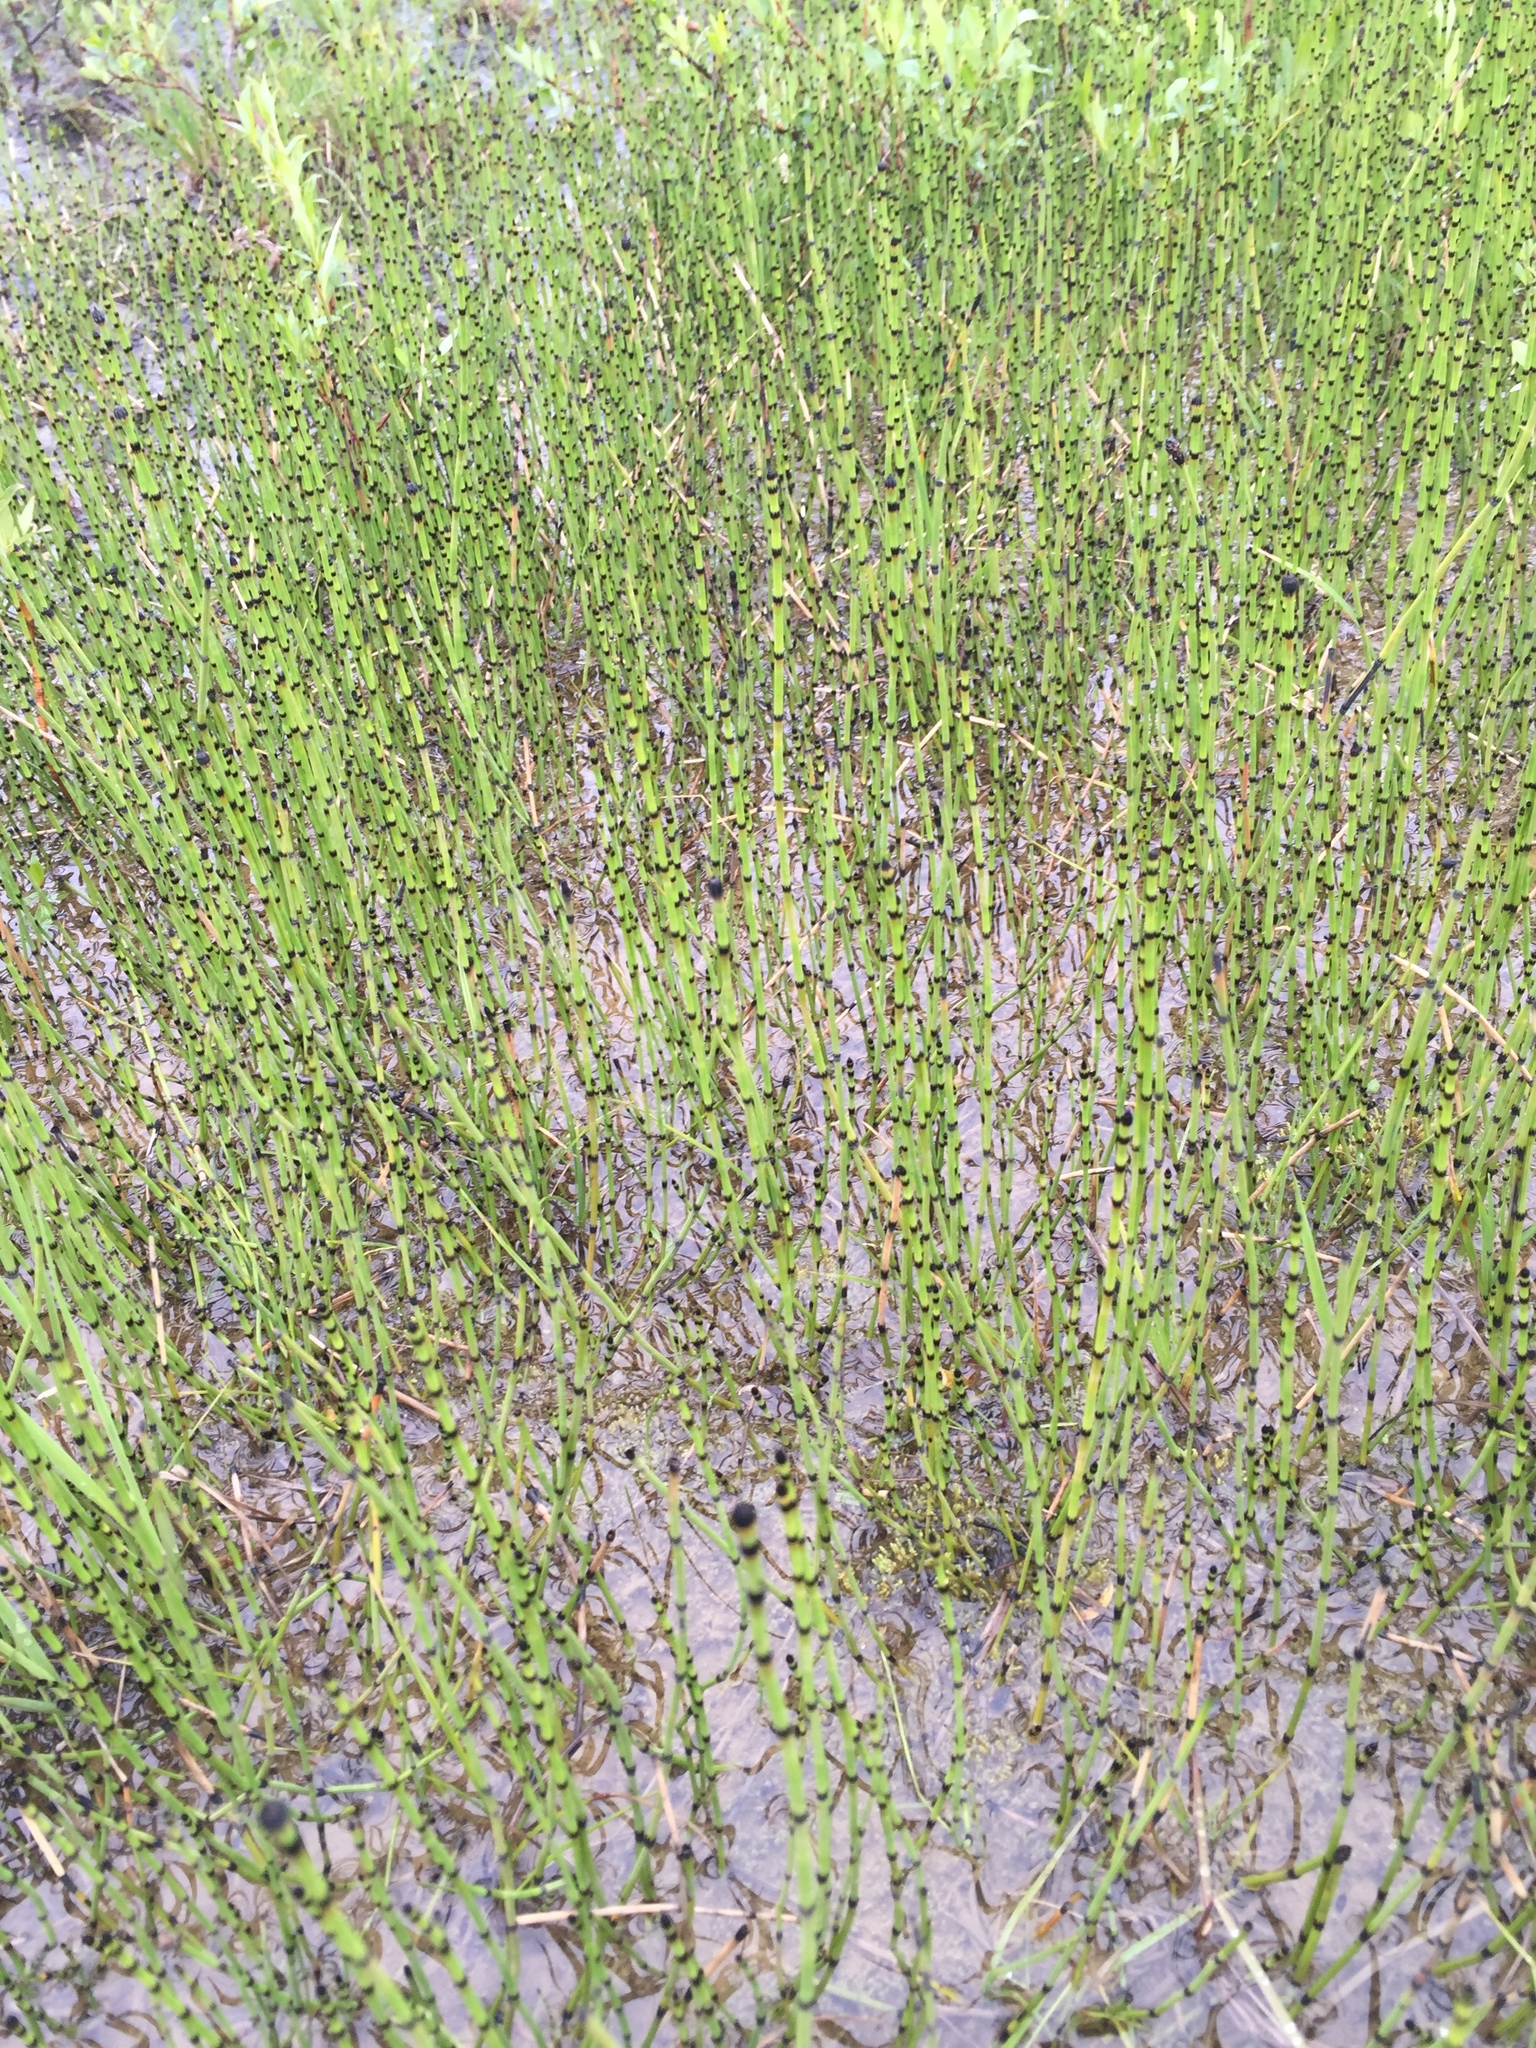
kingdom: Plantae
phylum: Tracheophyta
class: Polypodiopsida
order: Equisetales
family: Equisetaceae
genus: Equisetum
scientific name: Equisetum variegatum
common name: Variegated horsetail
